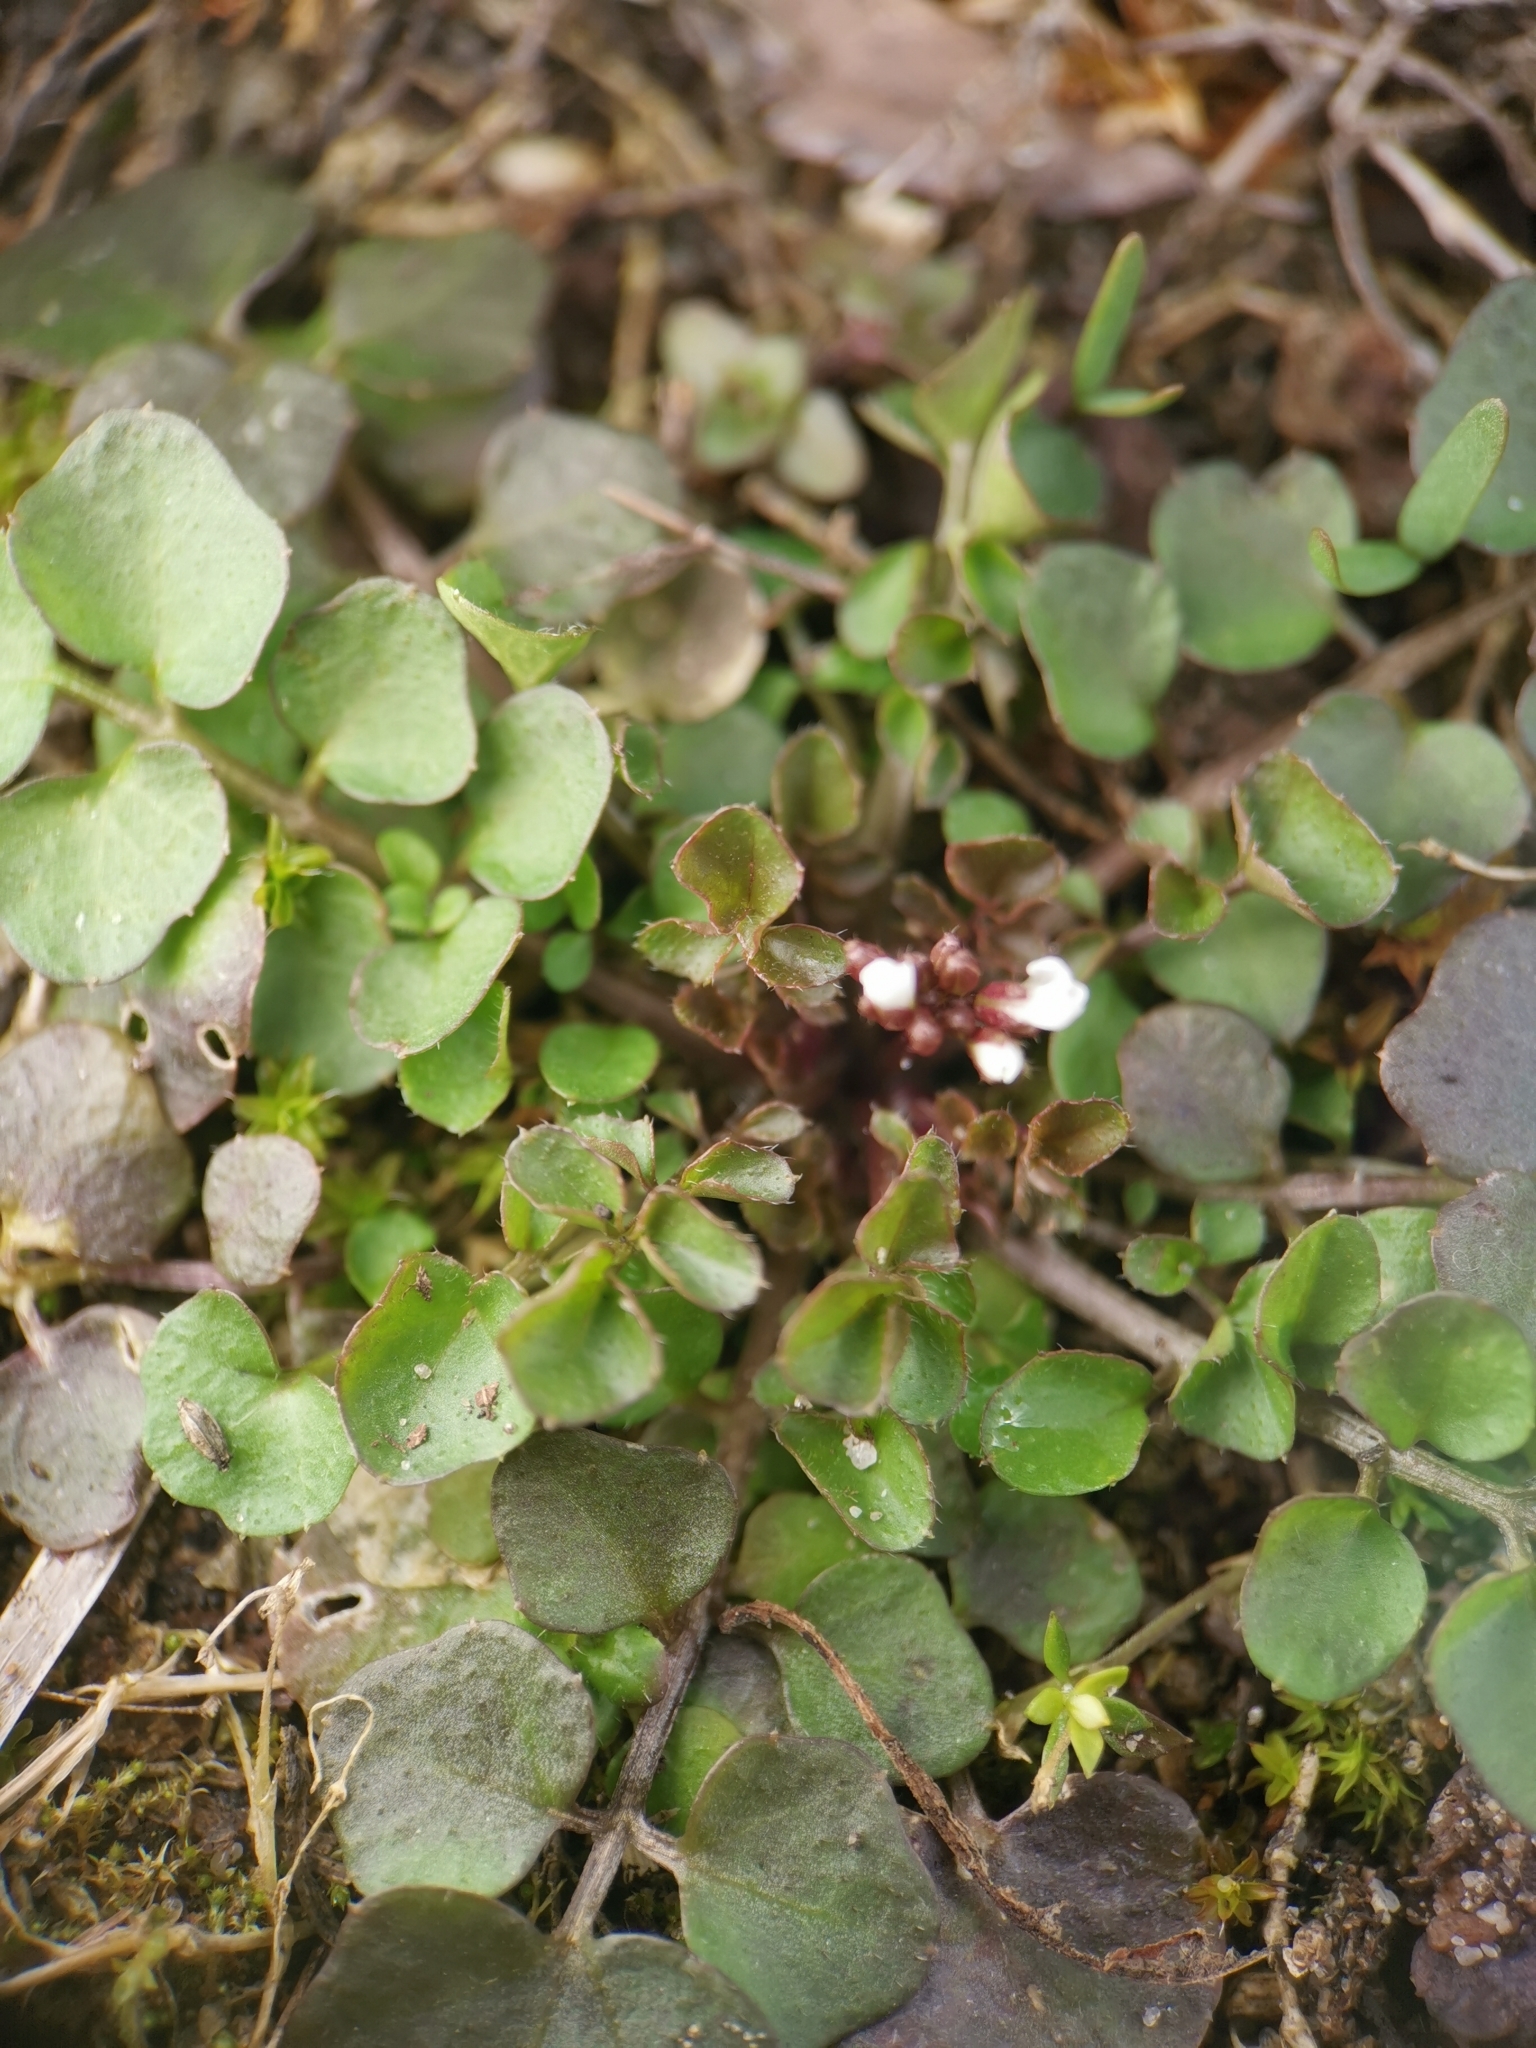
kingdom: Plantae
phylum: Tracheophyta
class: Magnoliopsida
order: Brassicales
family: Brassicaceae
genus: Cardamine
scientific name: Cardamine hirsuta
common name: Hairy bittercress
